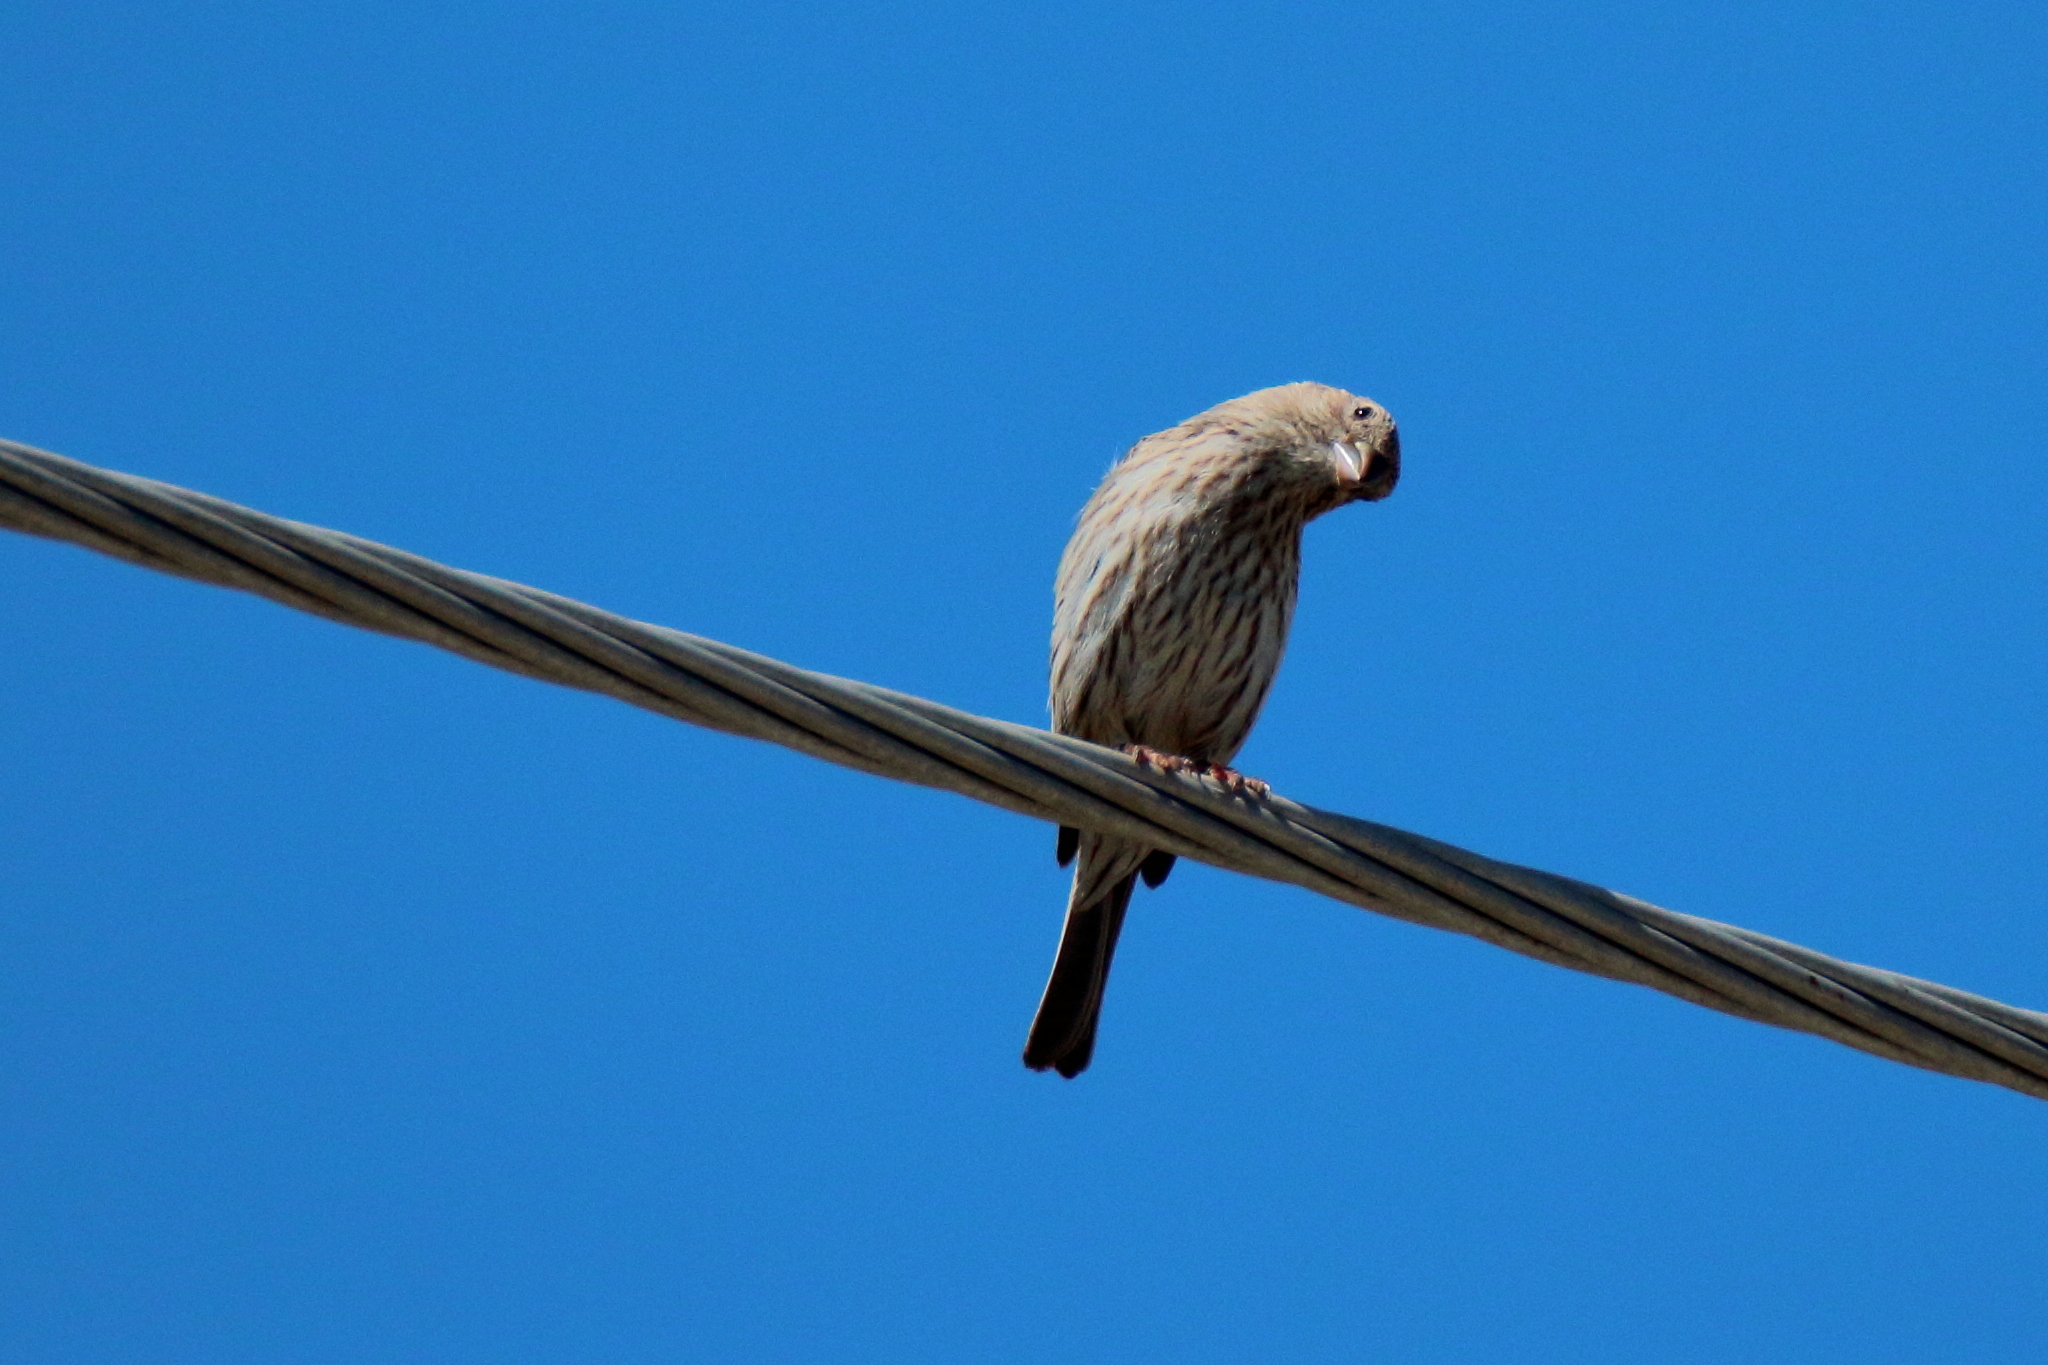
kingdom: Animalia
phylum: Chordata
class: Aves
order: Passeriformes
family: Fringillidae
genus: Haemorhous
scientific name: Haemorhous mexicanus
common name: House finch
